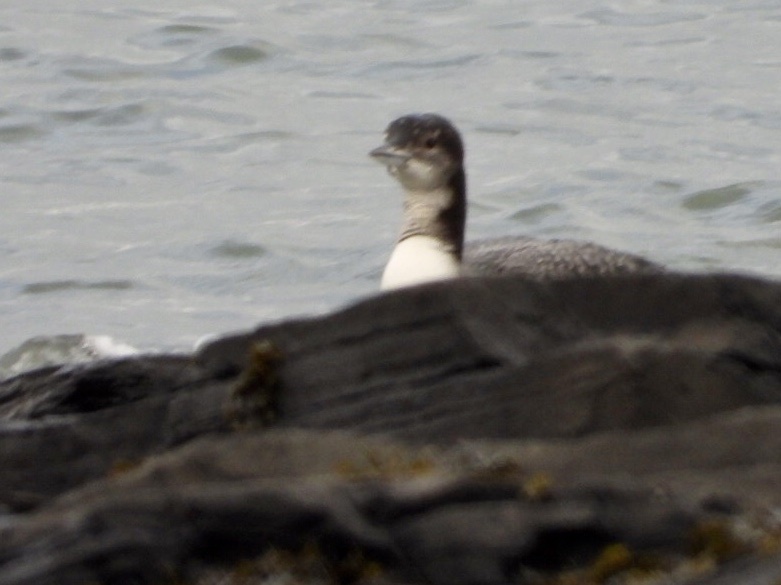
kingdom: Animalia
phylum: Chordata
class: Aves
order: Gaviiformes
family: Gaviidae
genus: Gavia
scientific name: Gavia immer
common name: Common loon
